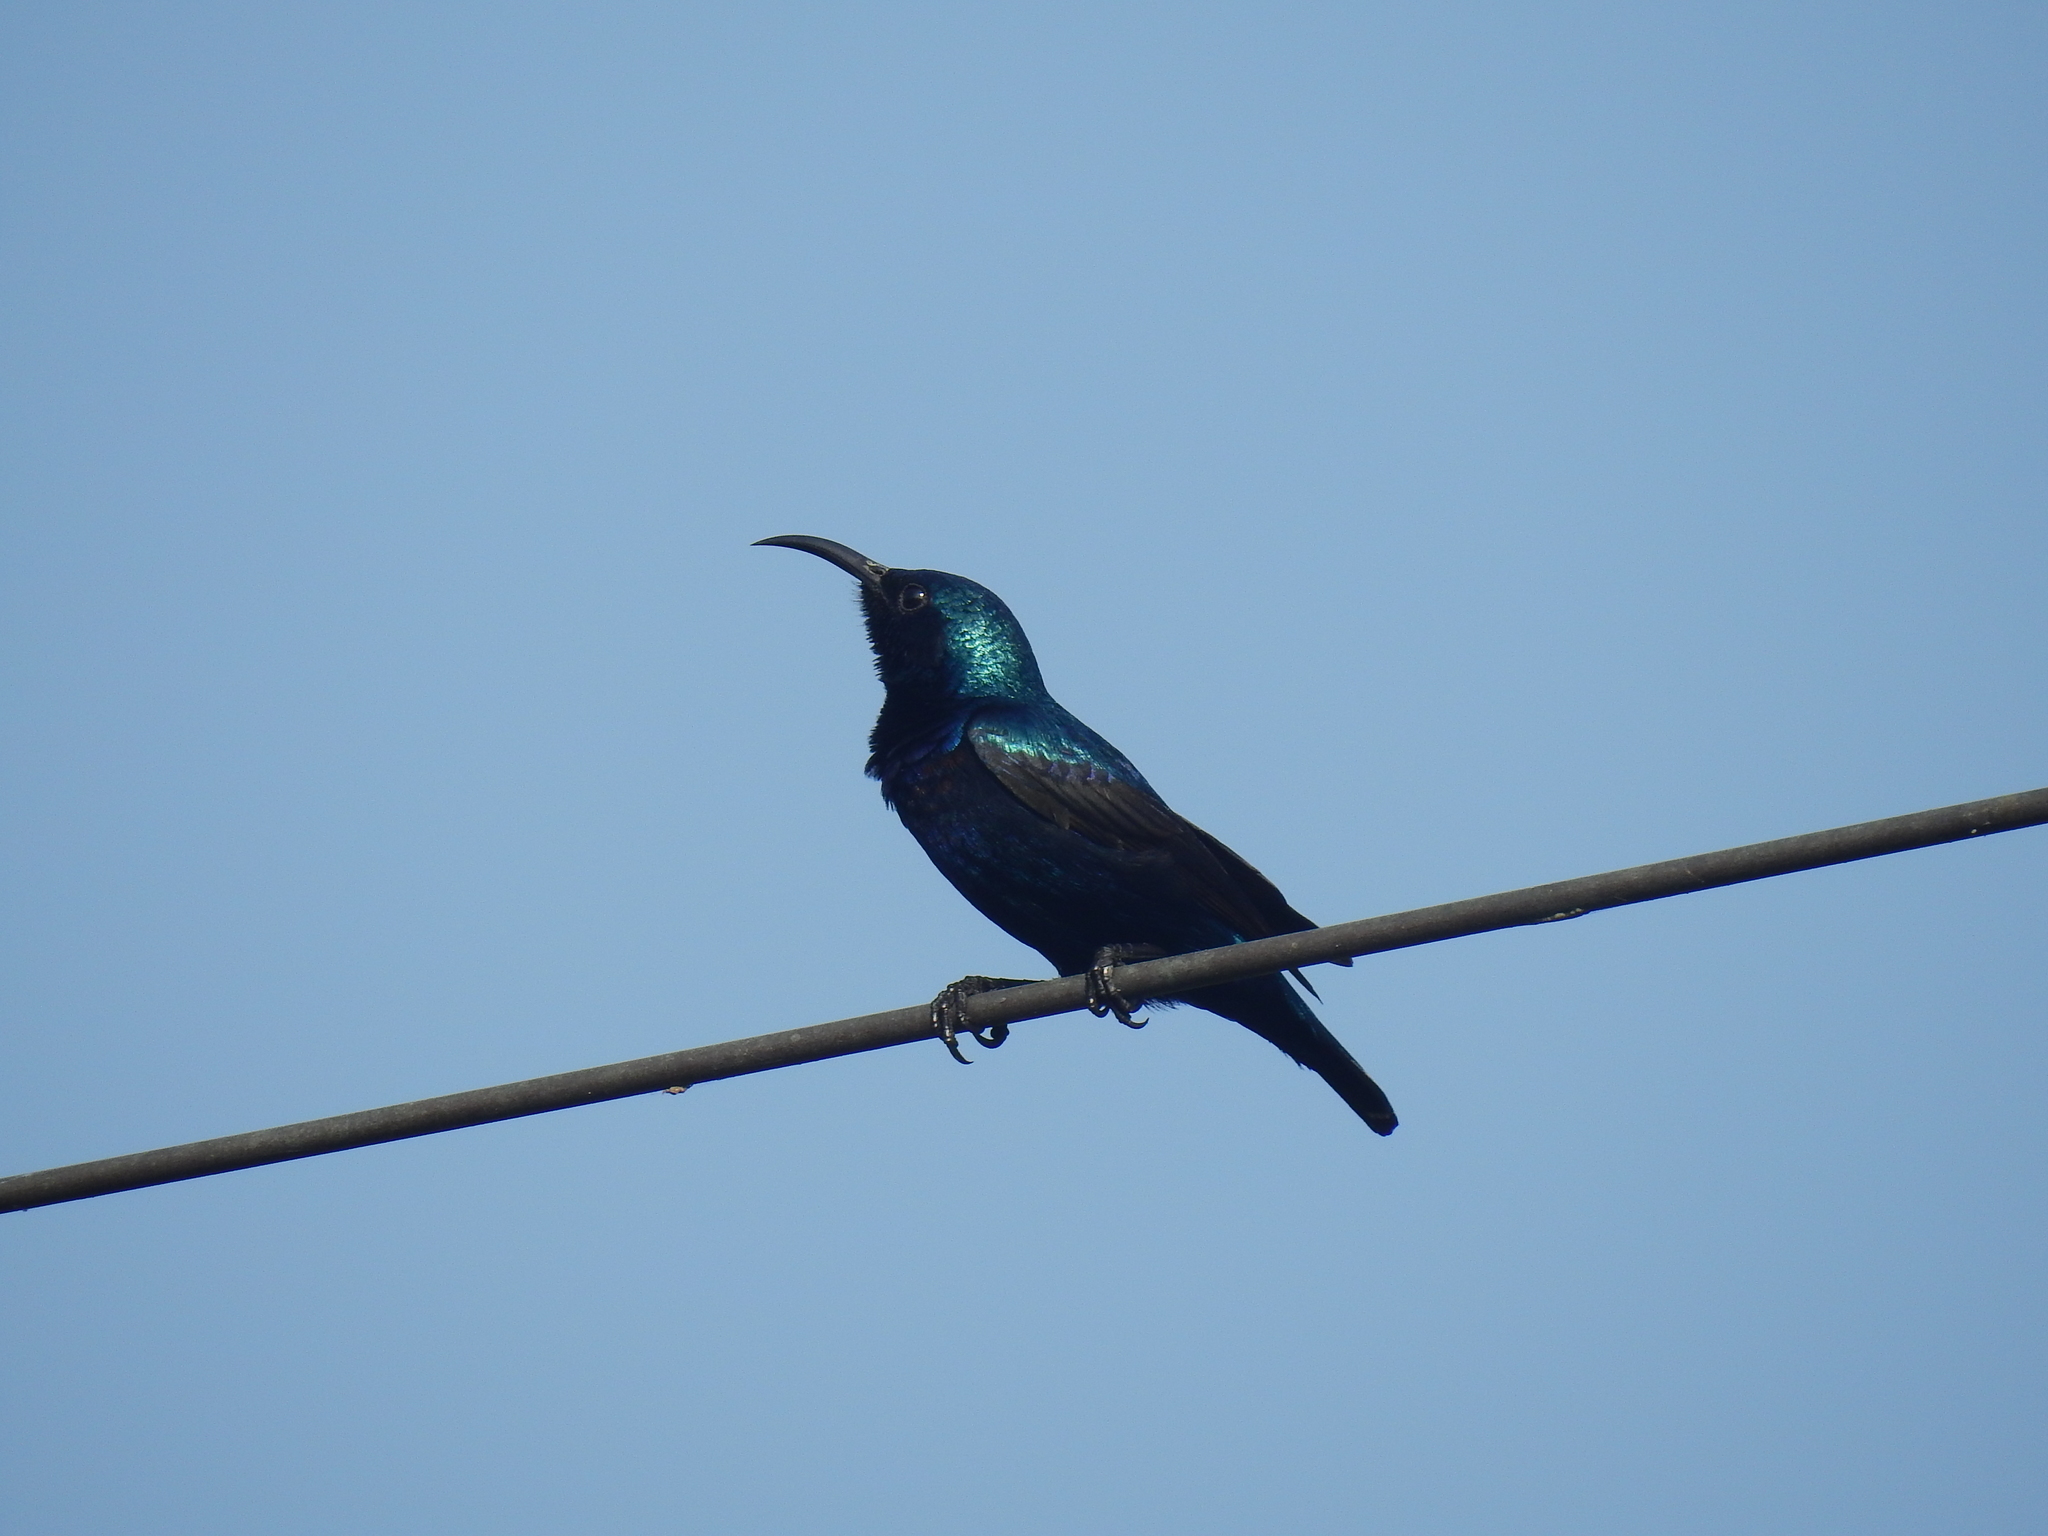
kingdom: Animalia
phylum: Chordata
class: Aves
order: Passeriformes
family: Nectariniidae
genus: Cinnyris
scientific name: Cinnyris asiaticus
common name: Purple sunbird
